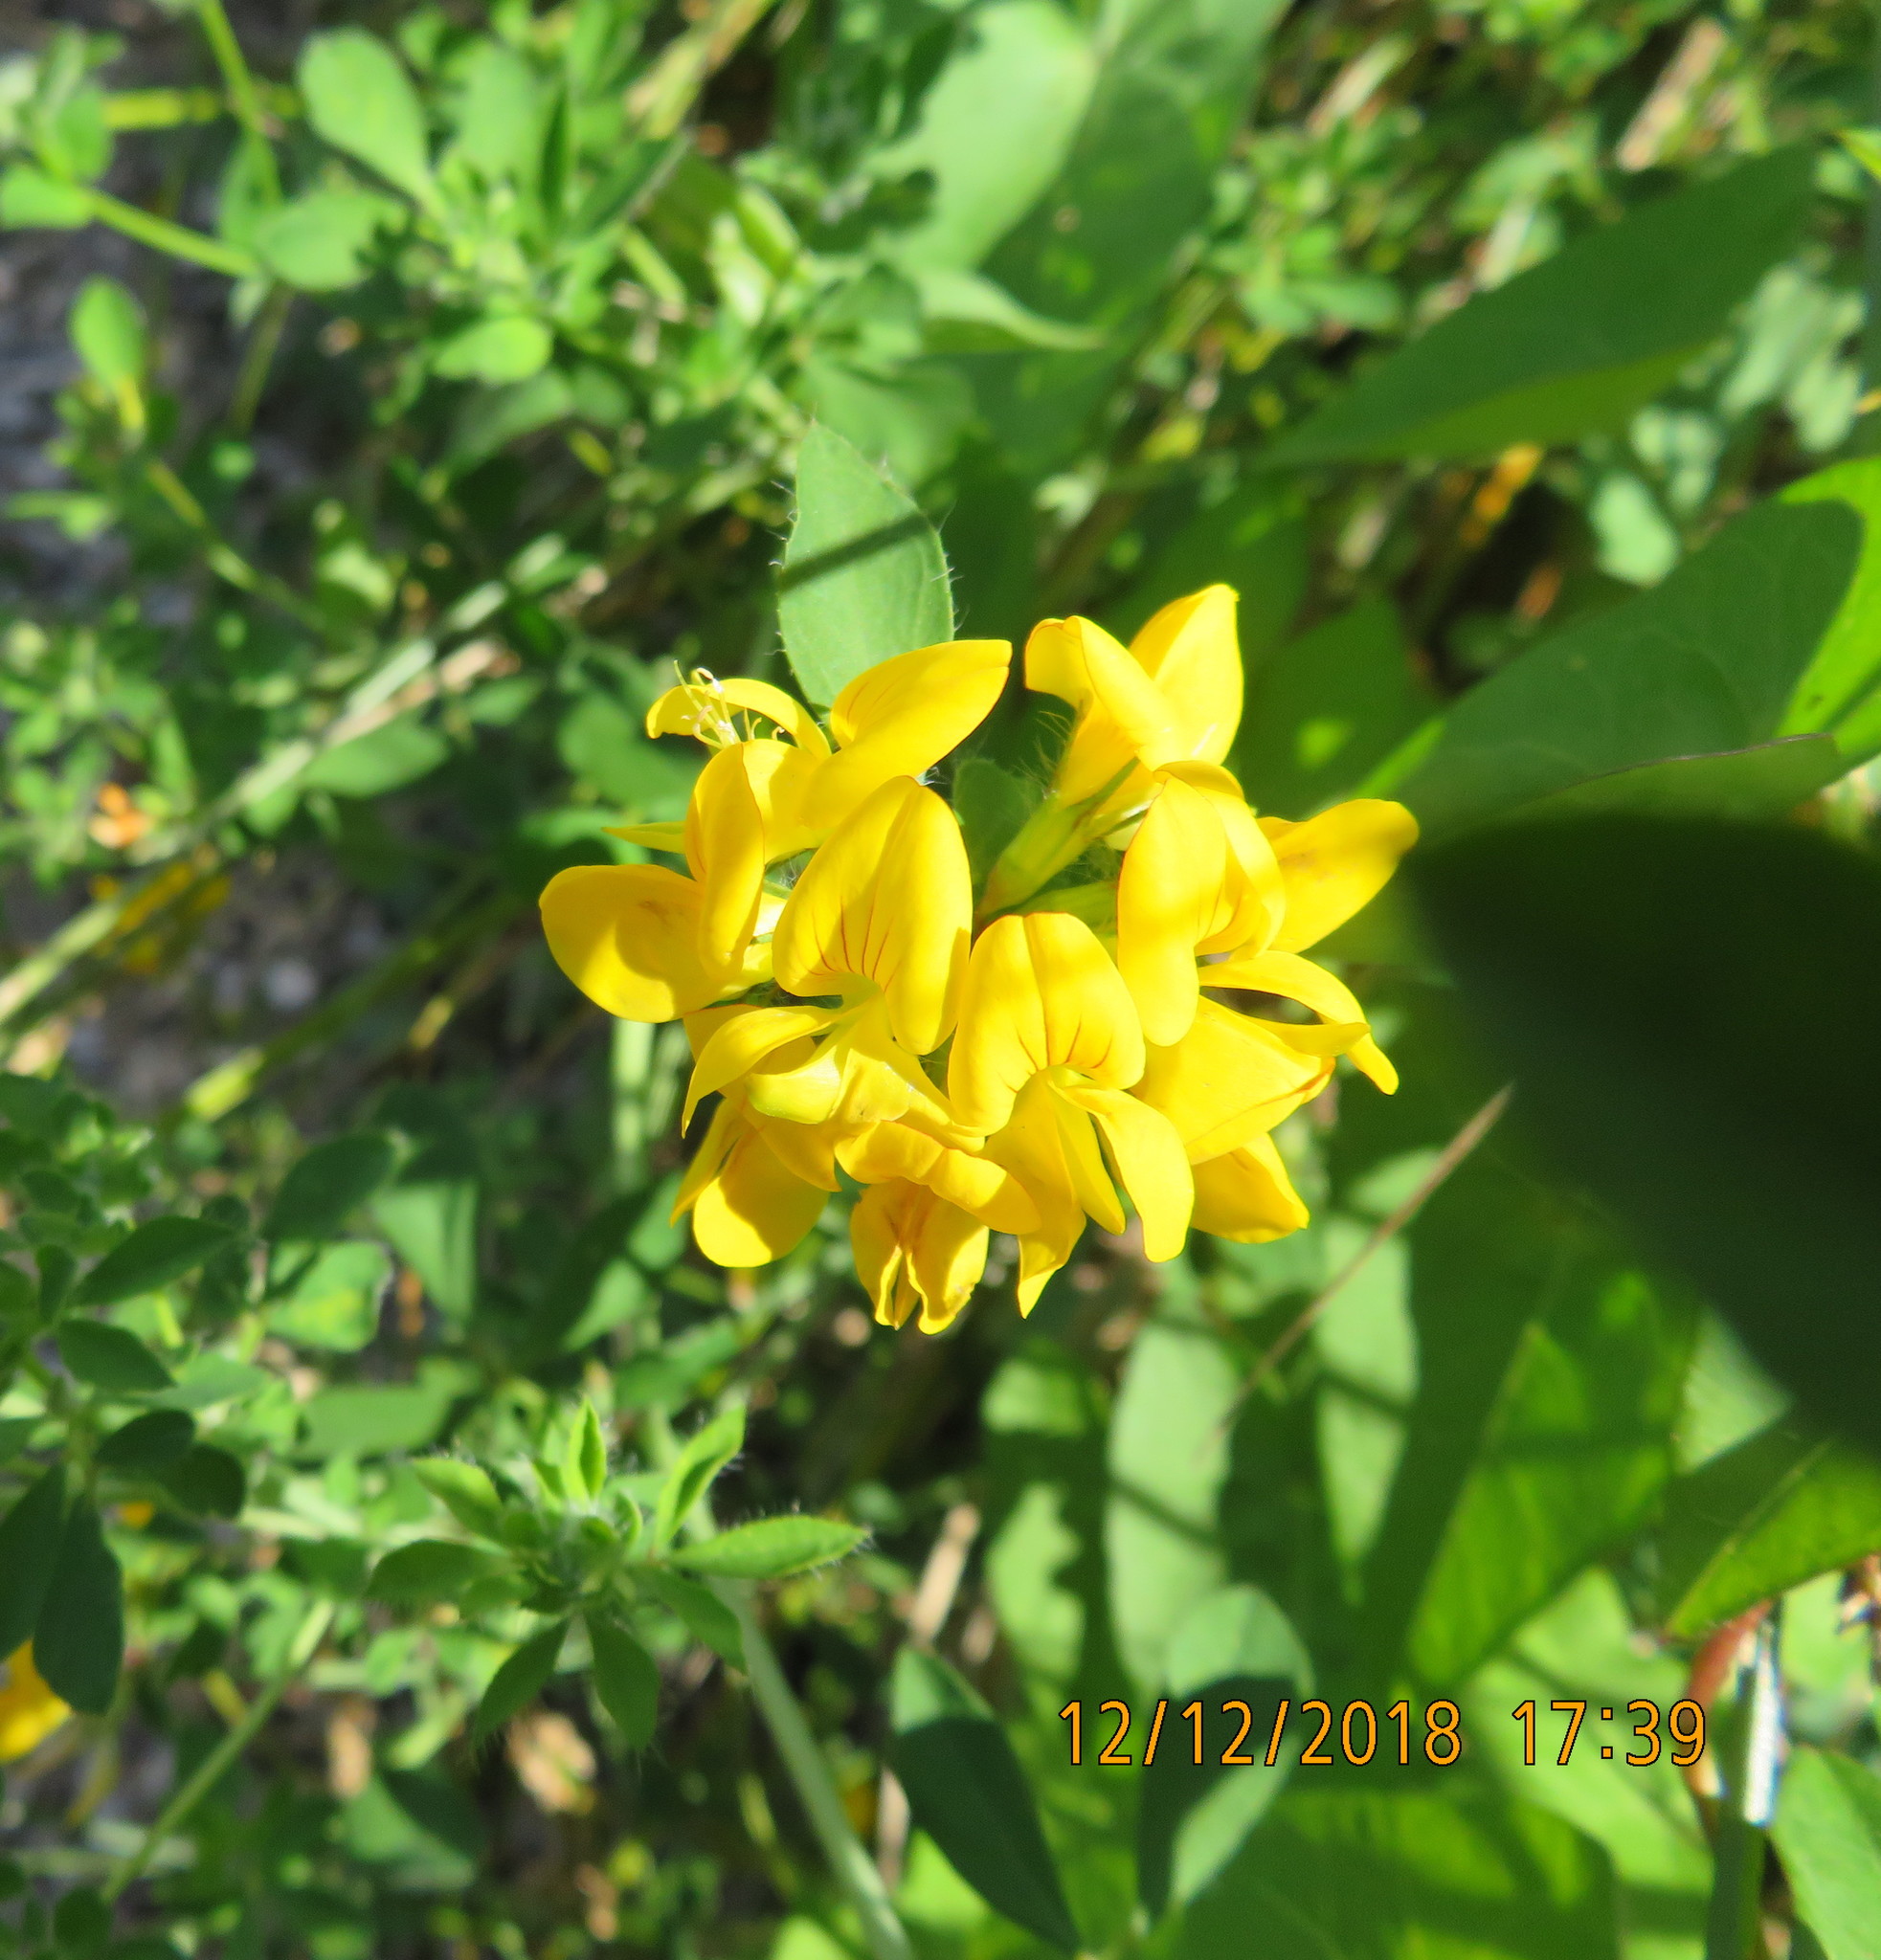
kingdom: Plantae
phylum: Tracheophyta
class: Magnoliopsida
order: Fabales
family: Fabaceae
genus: Lotus
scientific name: Lotus pedunculatus
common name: Greater birdsfoot-trefoil
